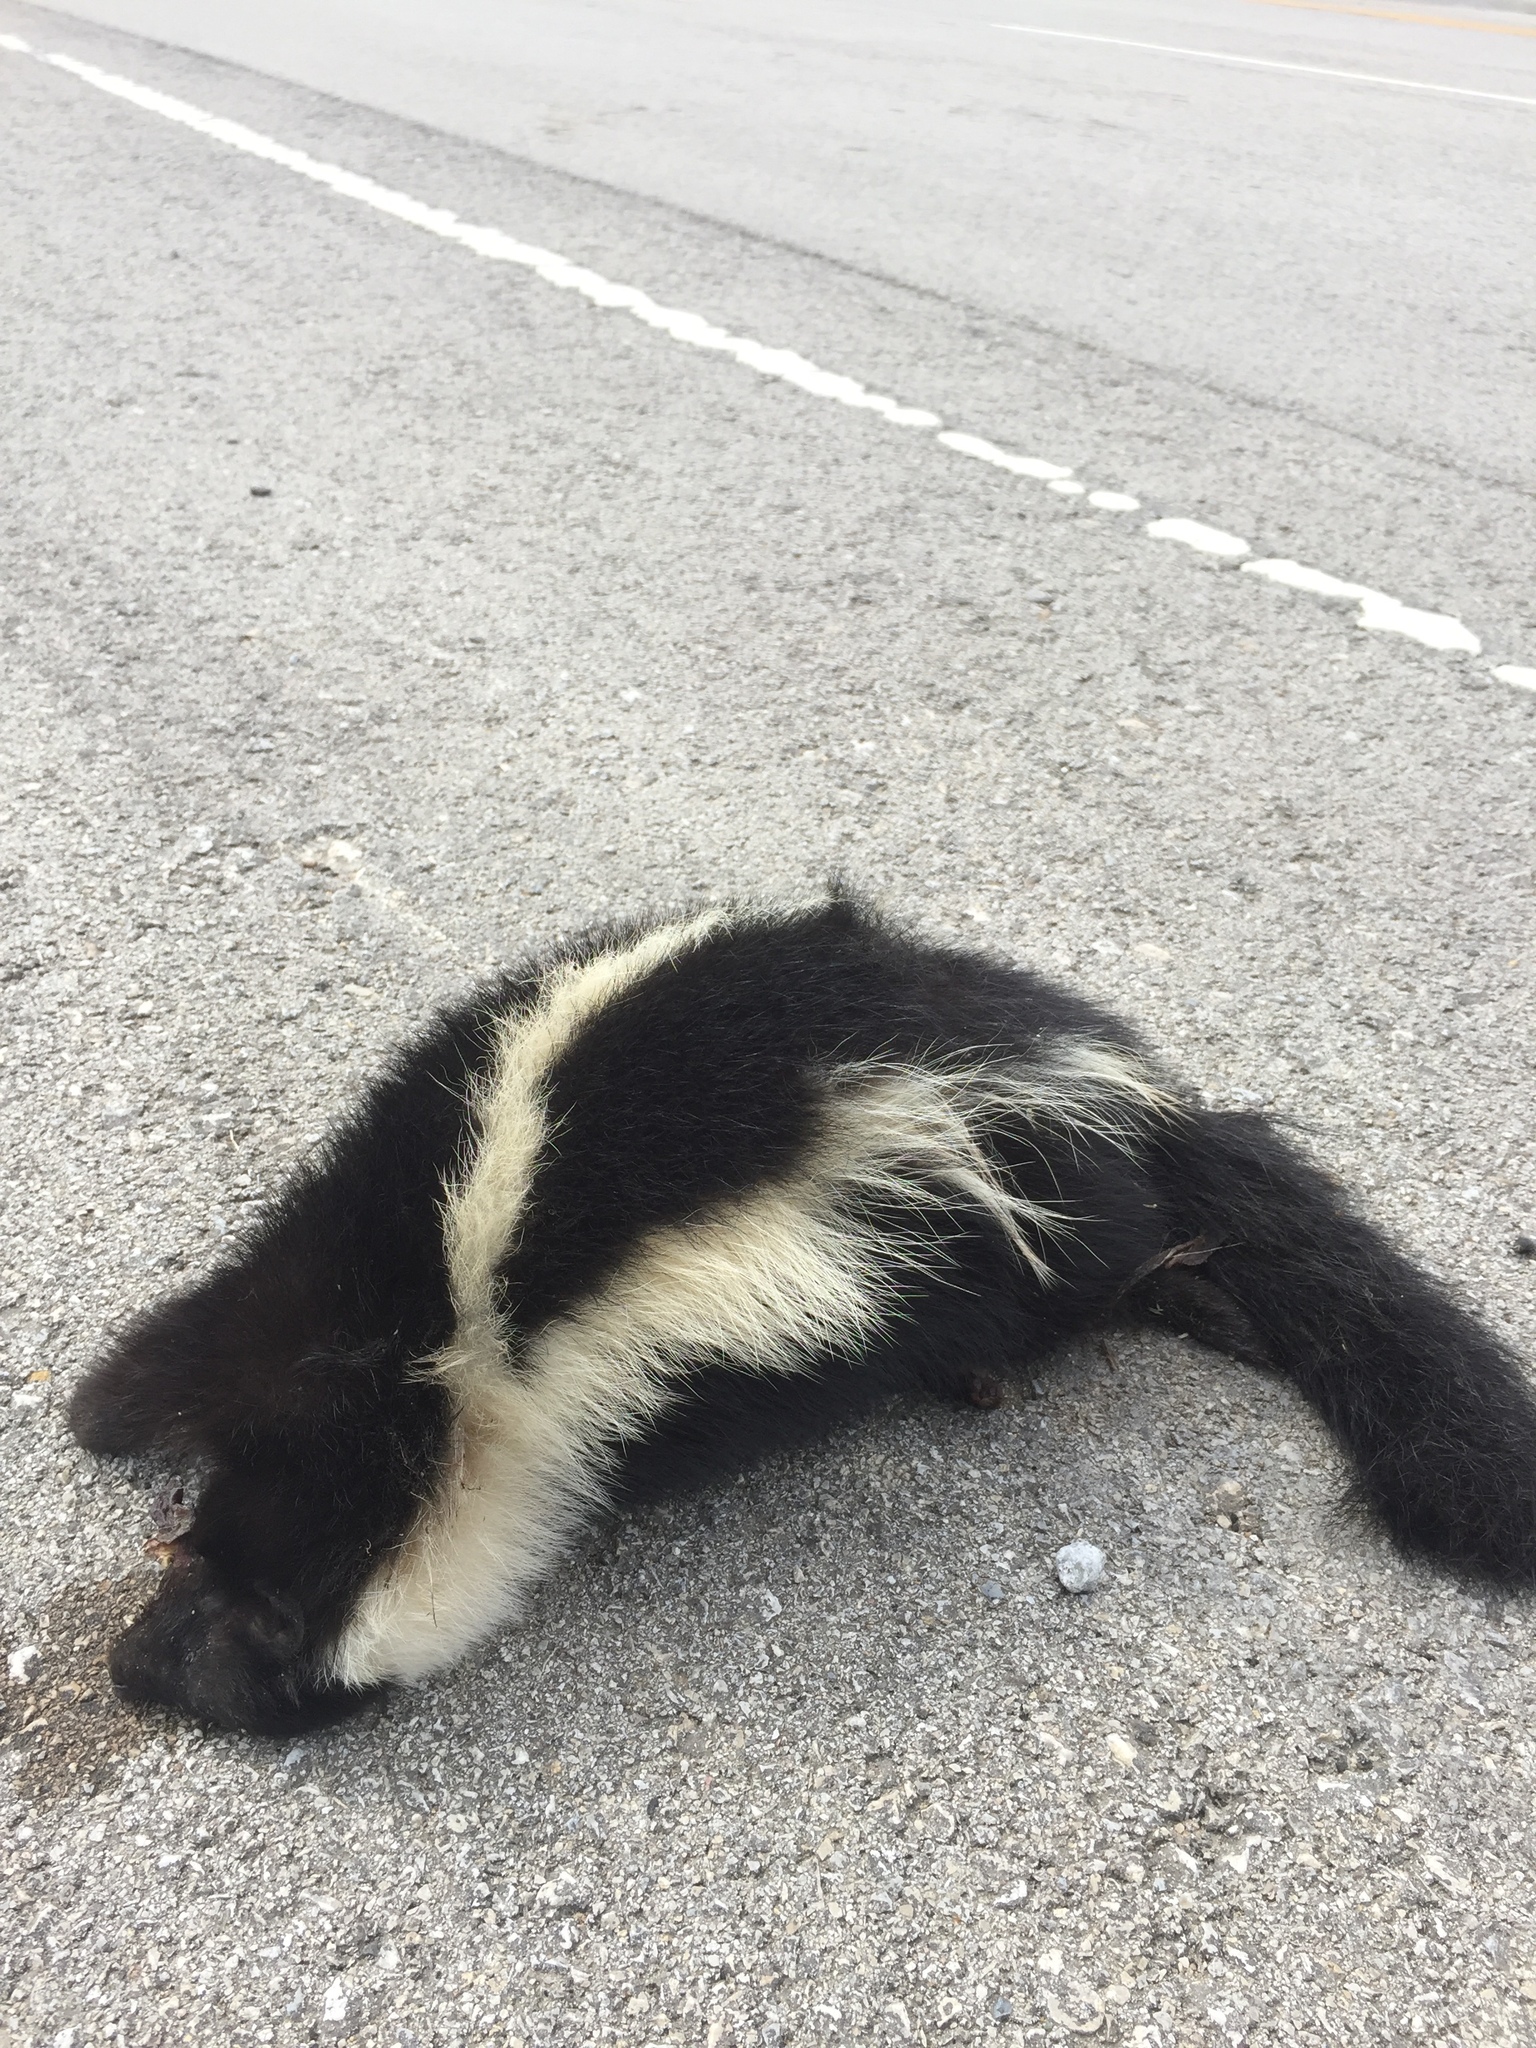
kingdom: Animalia
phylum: Chordata
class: Mammalia
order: Carnivora
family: Mephitidae
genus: Mephitis
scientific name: Mephitis mephitis
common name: Striped skunk
